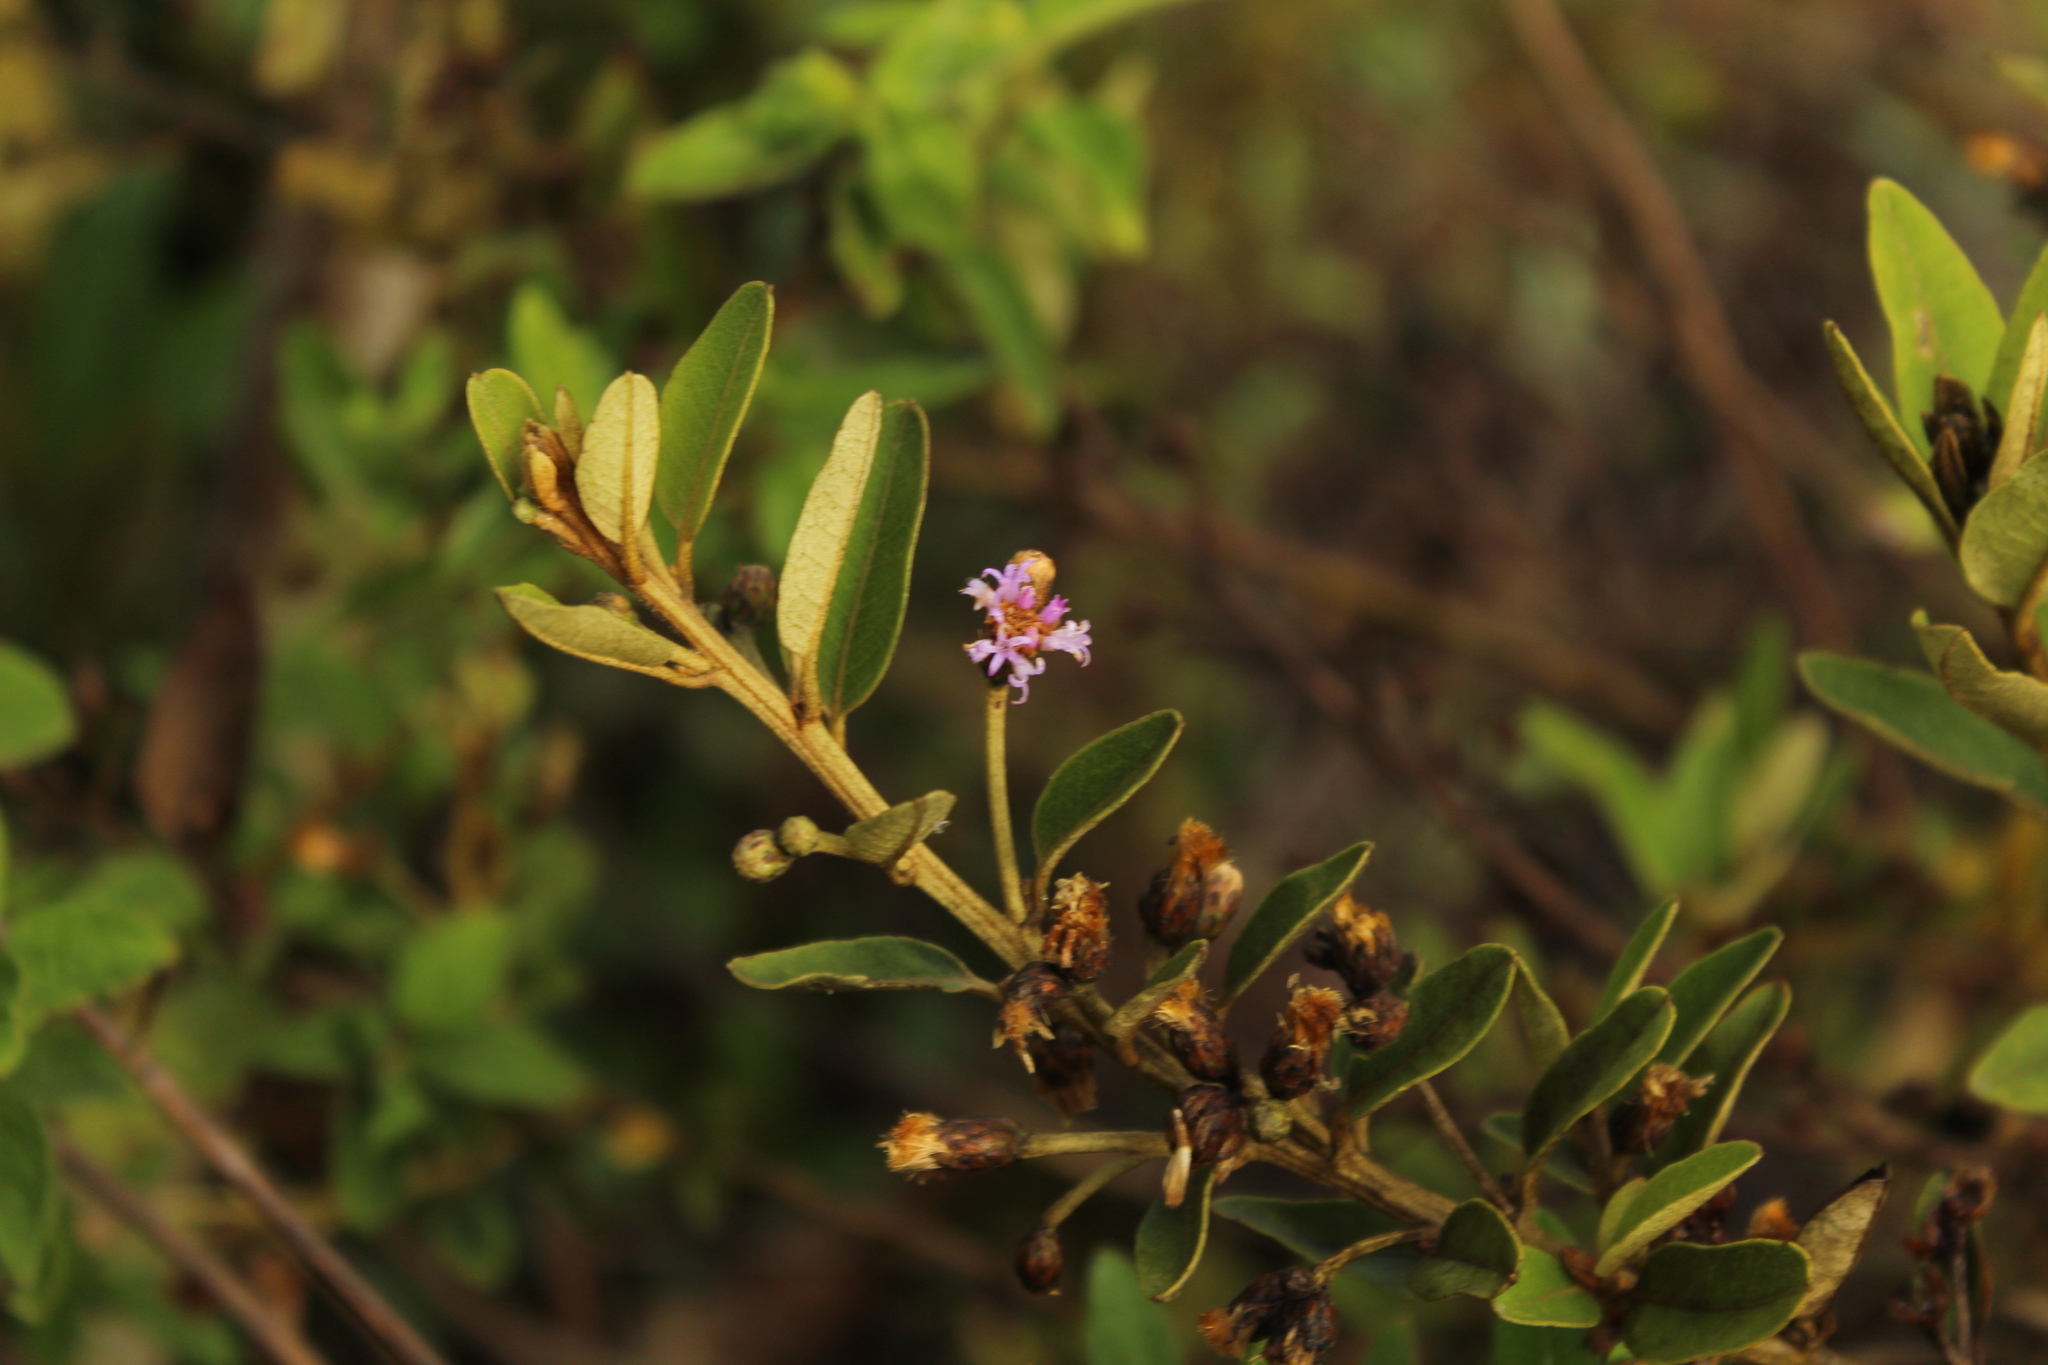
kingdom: Plantae
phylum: Tracheophyta
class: Magnoliopsida
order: Asterales
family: Asteraceae
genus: Lepidaploa
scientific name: Lepidaploa karstenii
